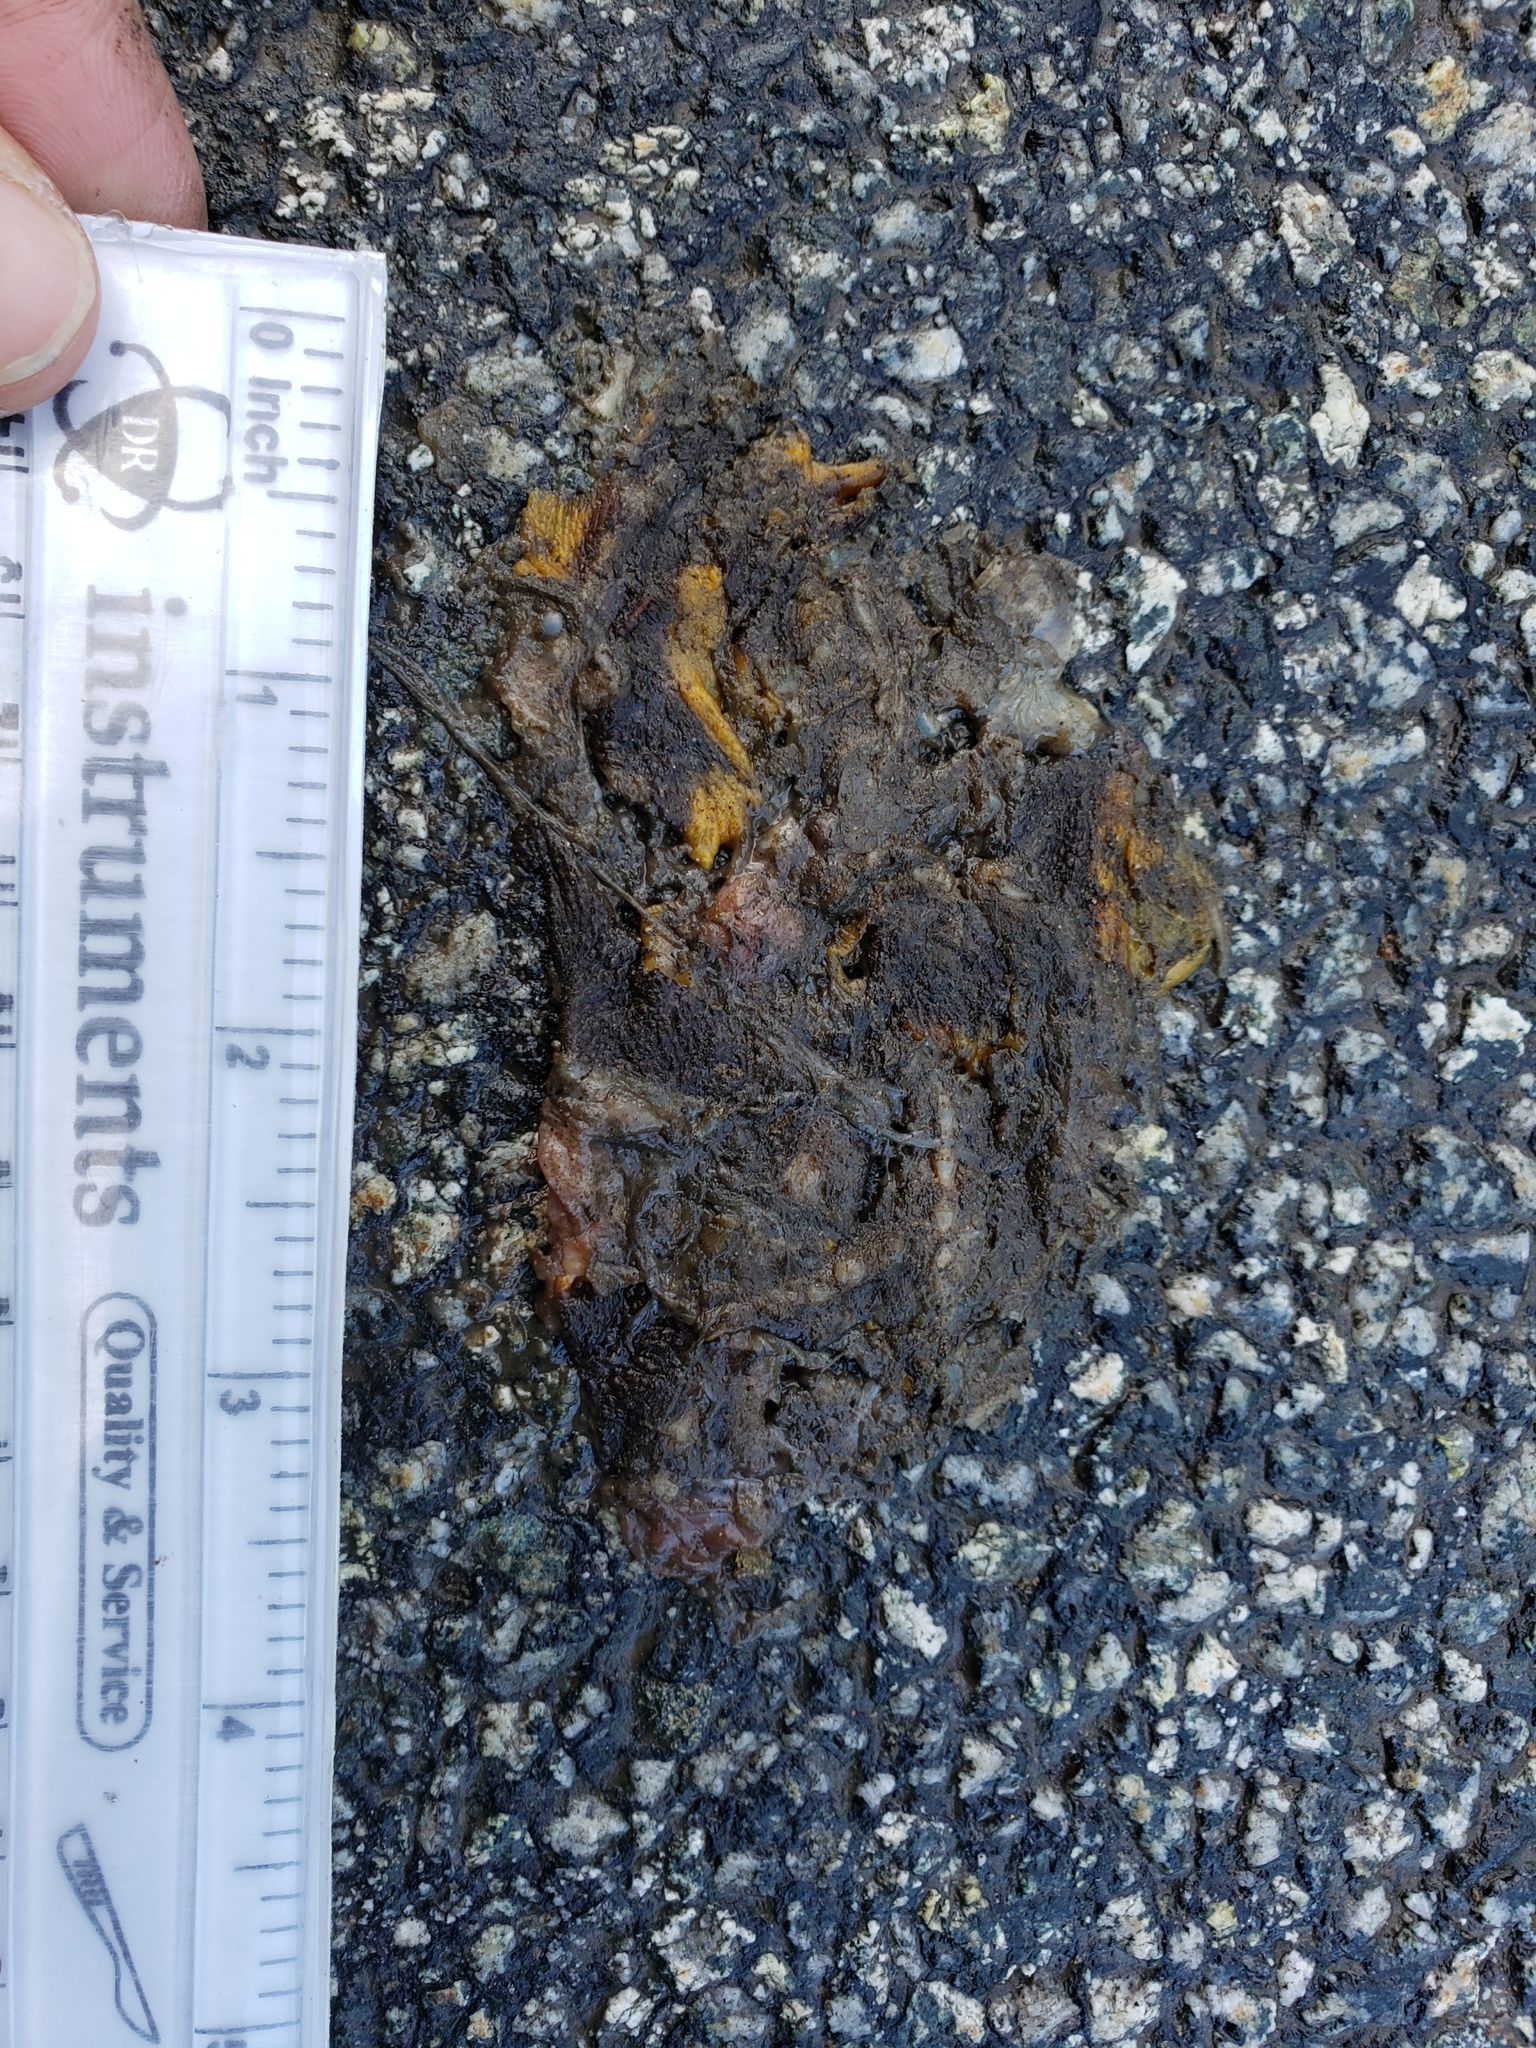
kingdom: Animalia
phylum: Chordata
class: Amphibia
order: Caudata
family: Salamandridae
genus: Taricha
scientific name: Taricha
